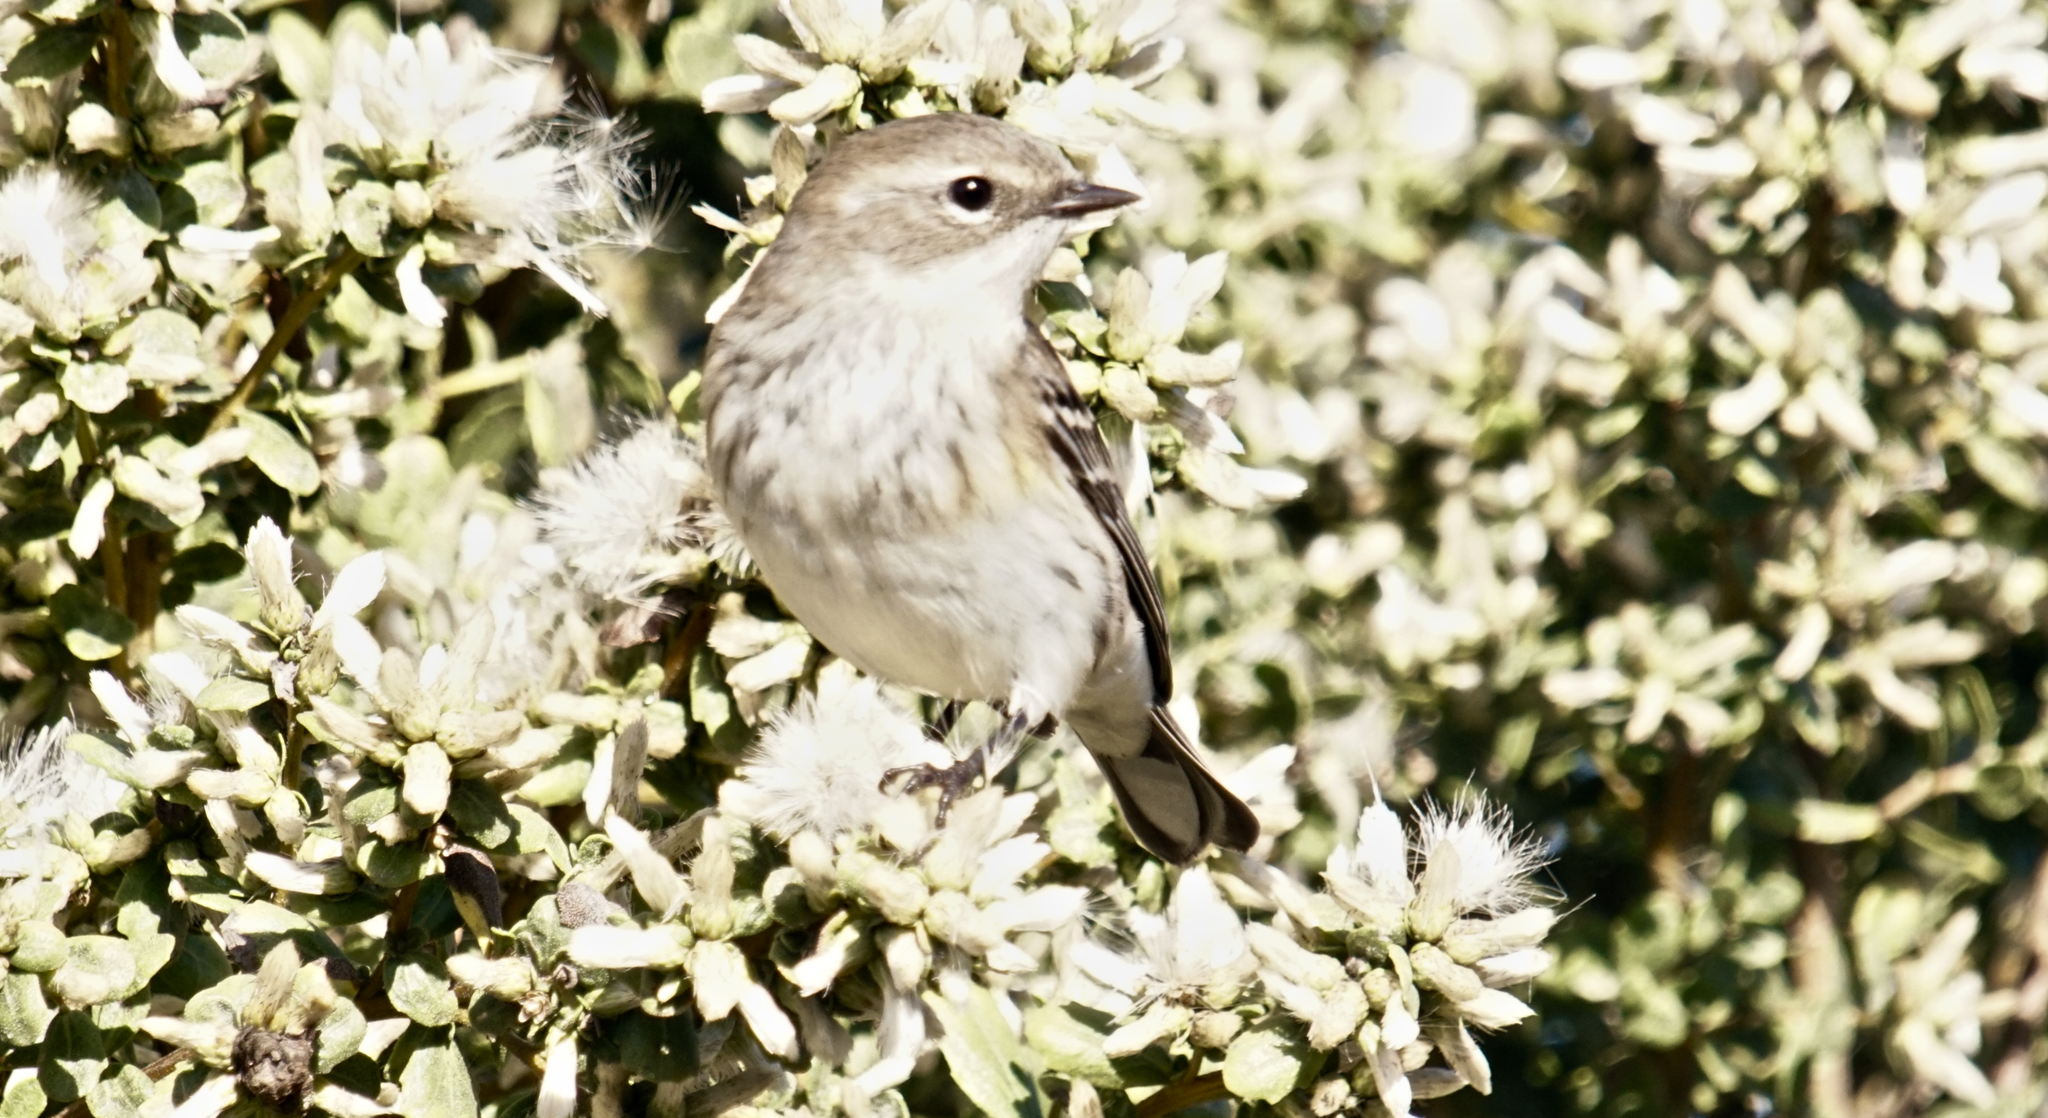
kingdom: Animalia
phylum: Chordata
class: Aves
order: Passeriformes
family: Parulidae
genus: Setophaga
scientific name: Setophaga coronata
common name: Myrtle warbler
